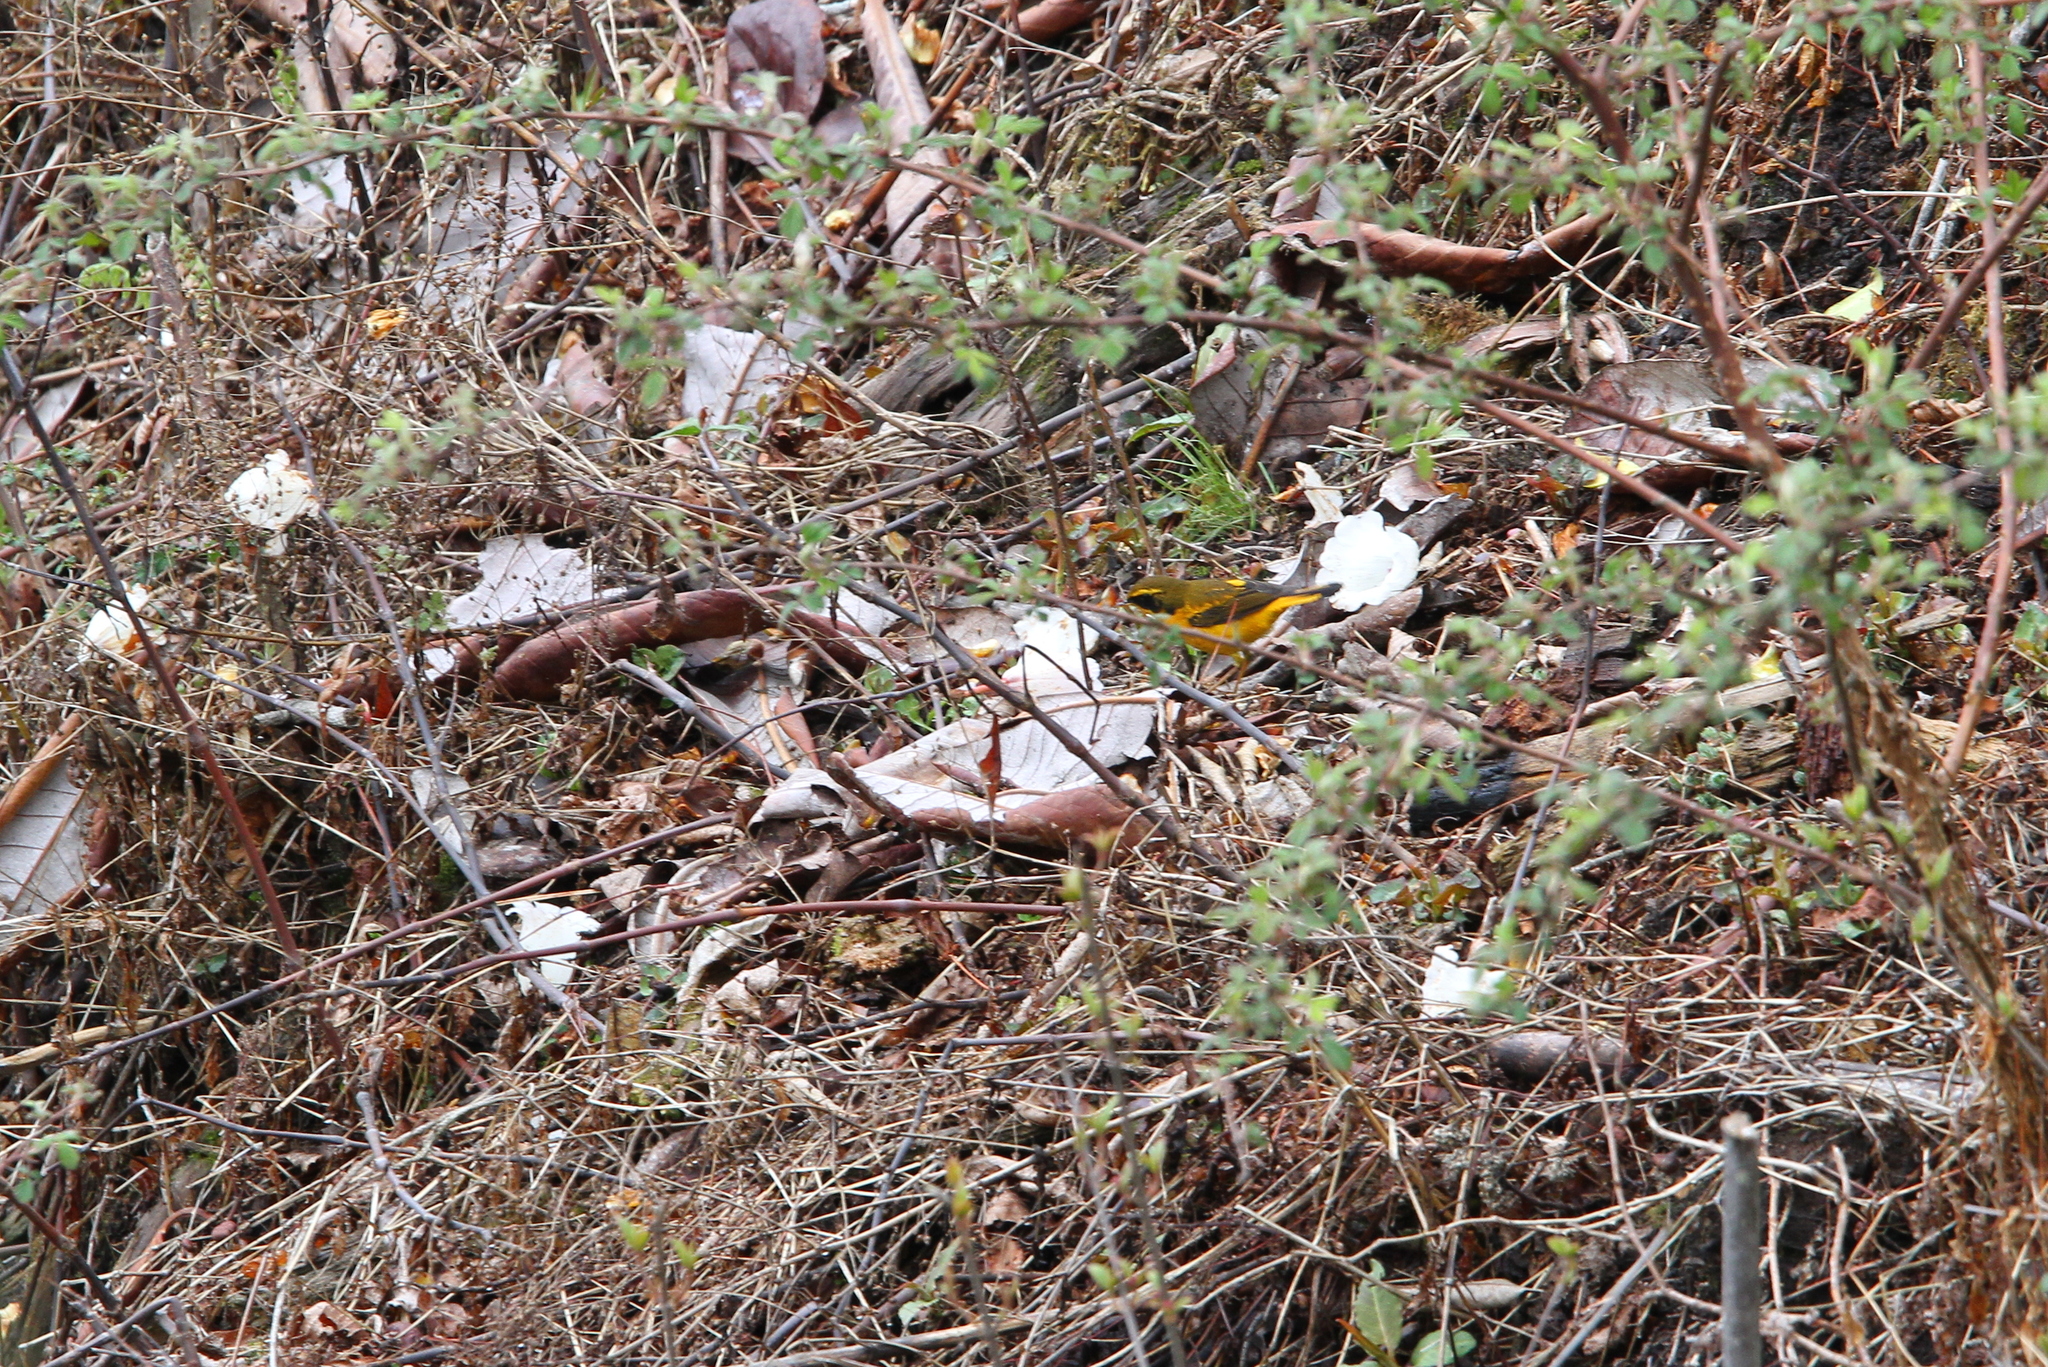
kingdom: Animalia
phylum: Chordata
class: Aves
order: Passeriformes
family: Muscicapidae
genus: Tarsiger
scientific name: Tarsiger chrysaeus
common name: Golden bush robin
